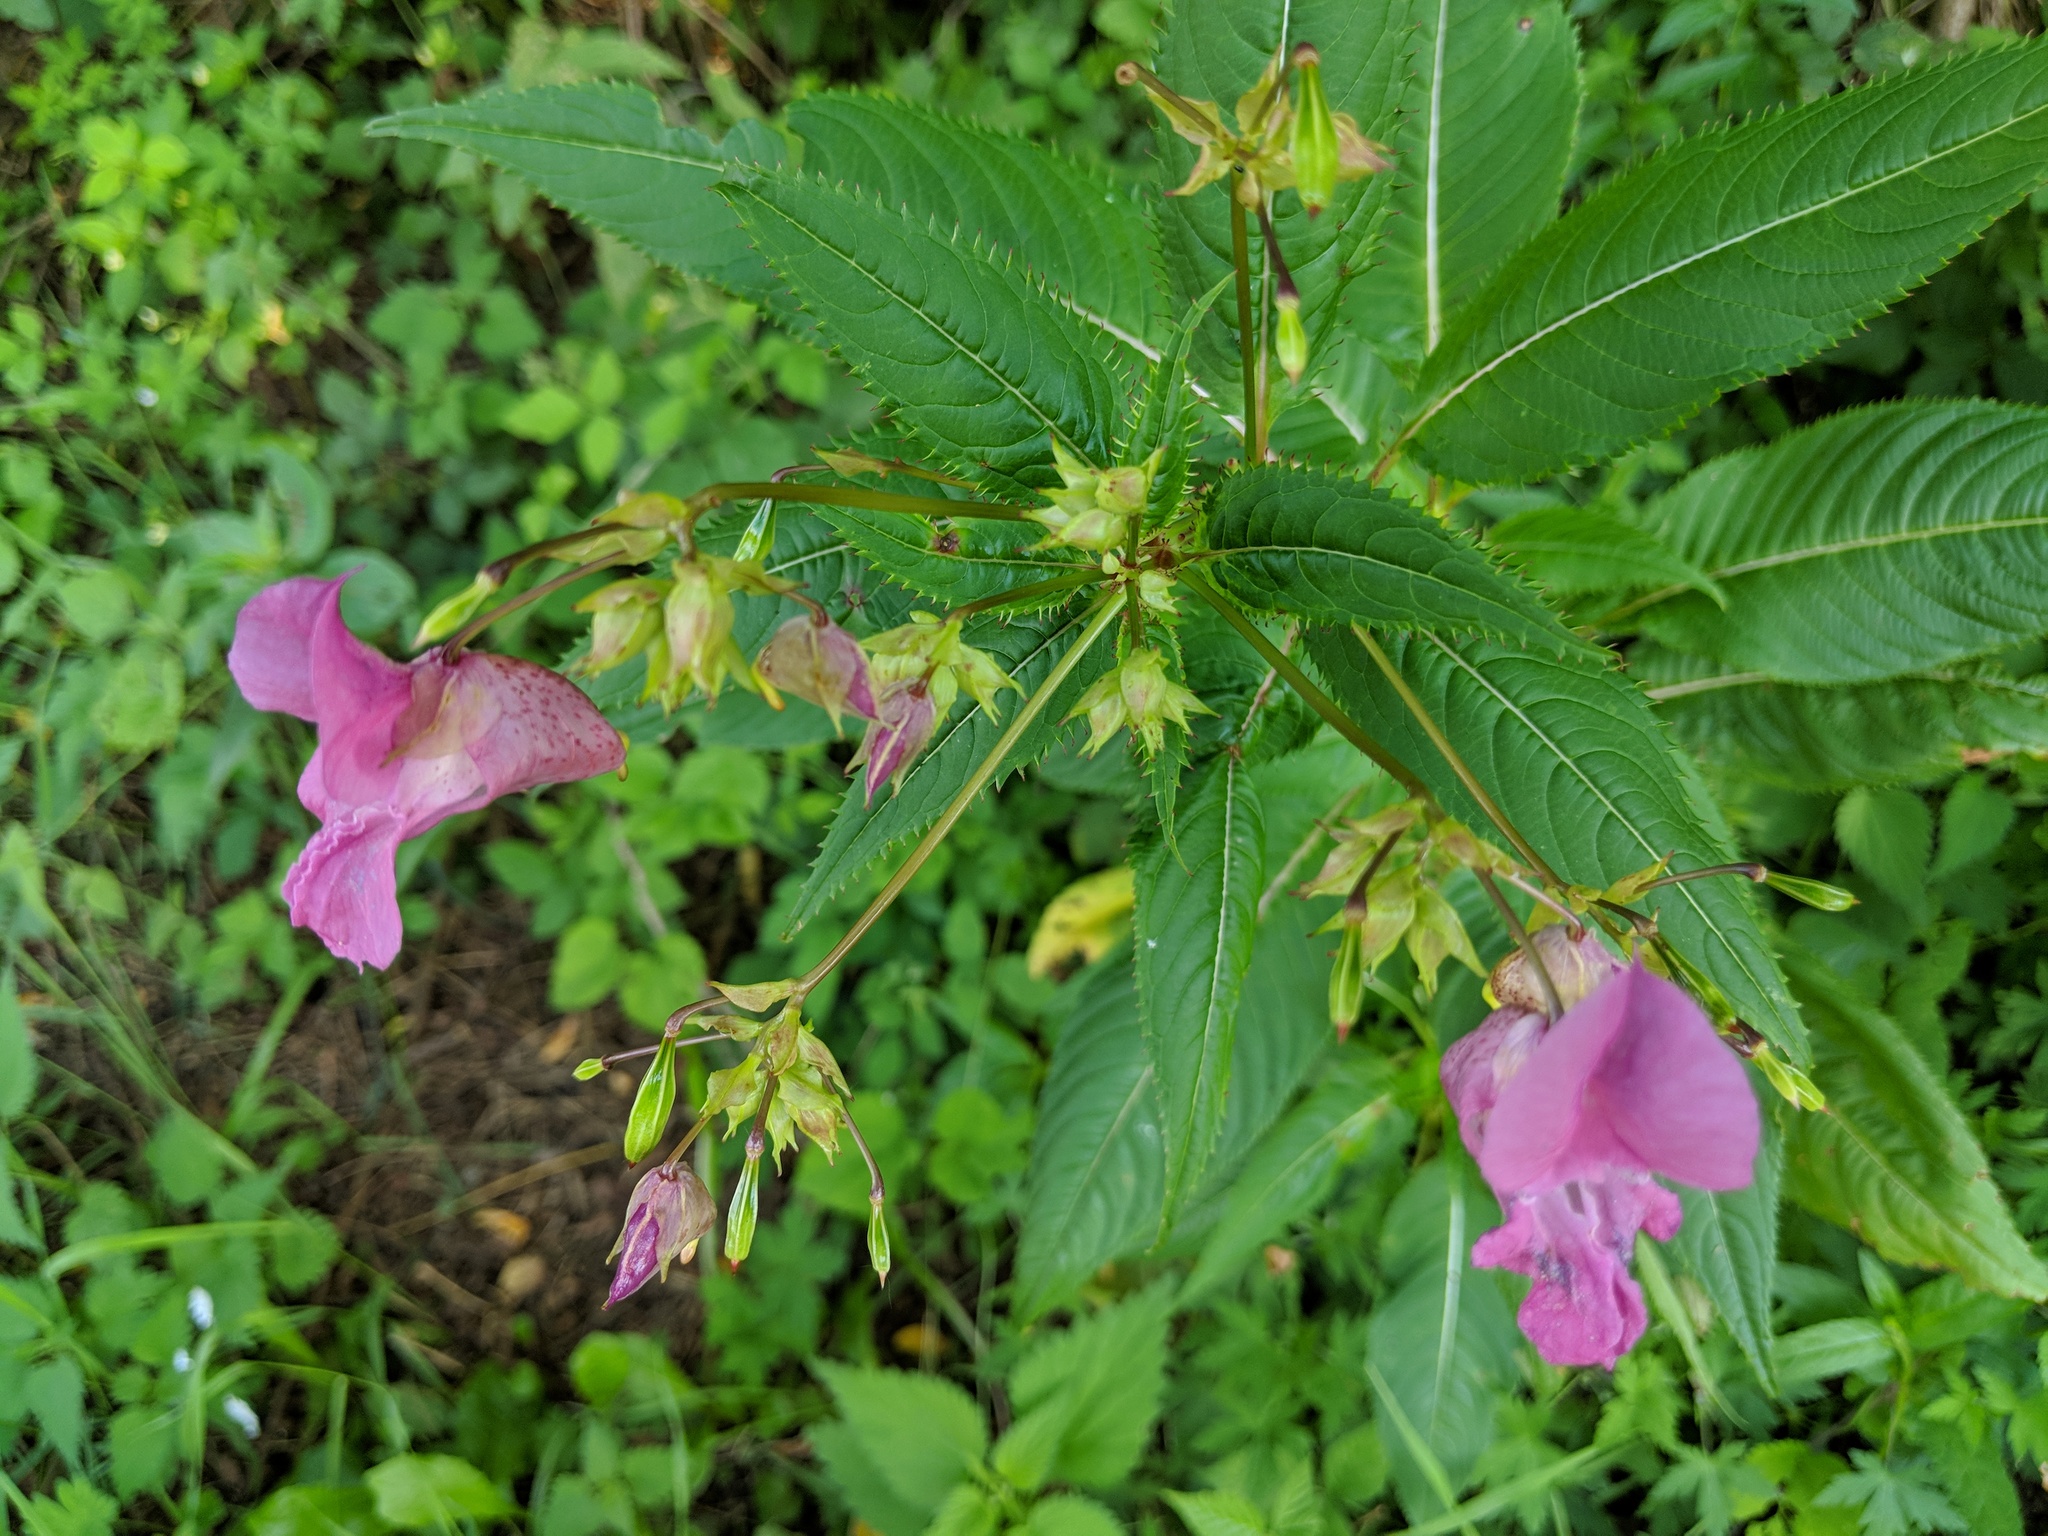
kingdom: Plantae
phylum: Tracheophyta
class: Magnoliopsida
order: Ericales
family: Balsaminaceae
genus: Impatiens
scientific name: Impatiens glandulifera
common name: Himalayan balsam
